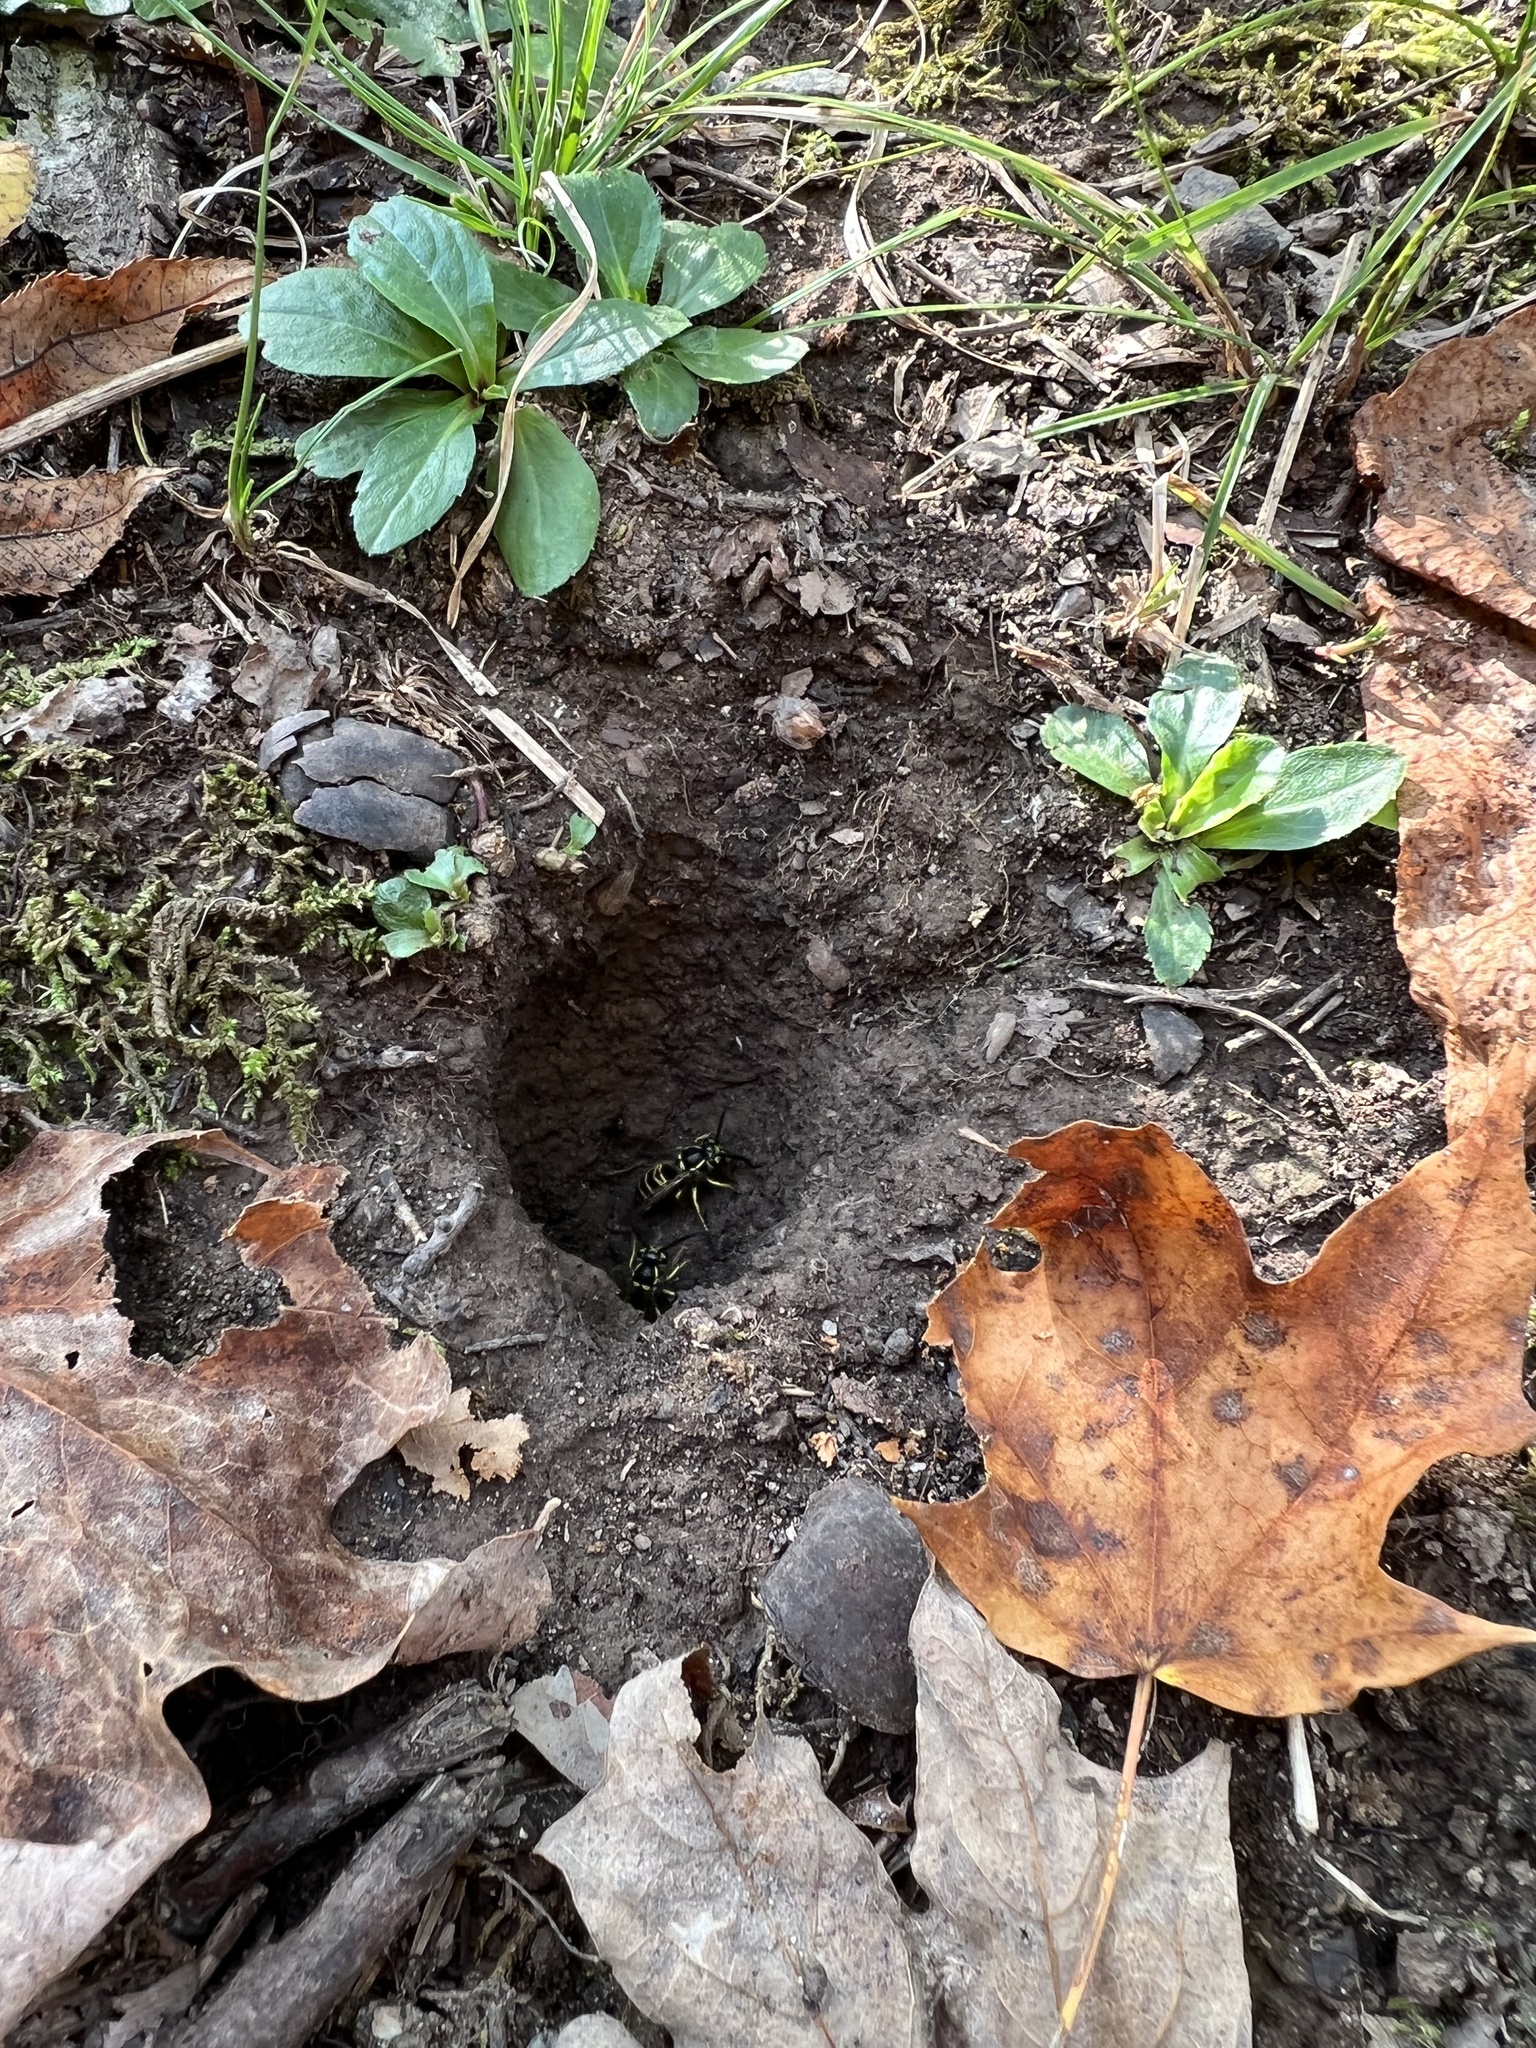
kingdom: Animalia
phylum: Arthropoda
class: Insecta
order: Hymenoptera
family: Vespidae
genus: Vespula
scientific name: Vespula maculifrons
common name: Eastern yellowjacket
